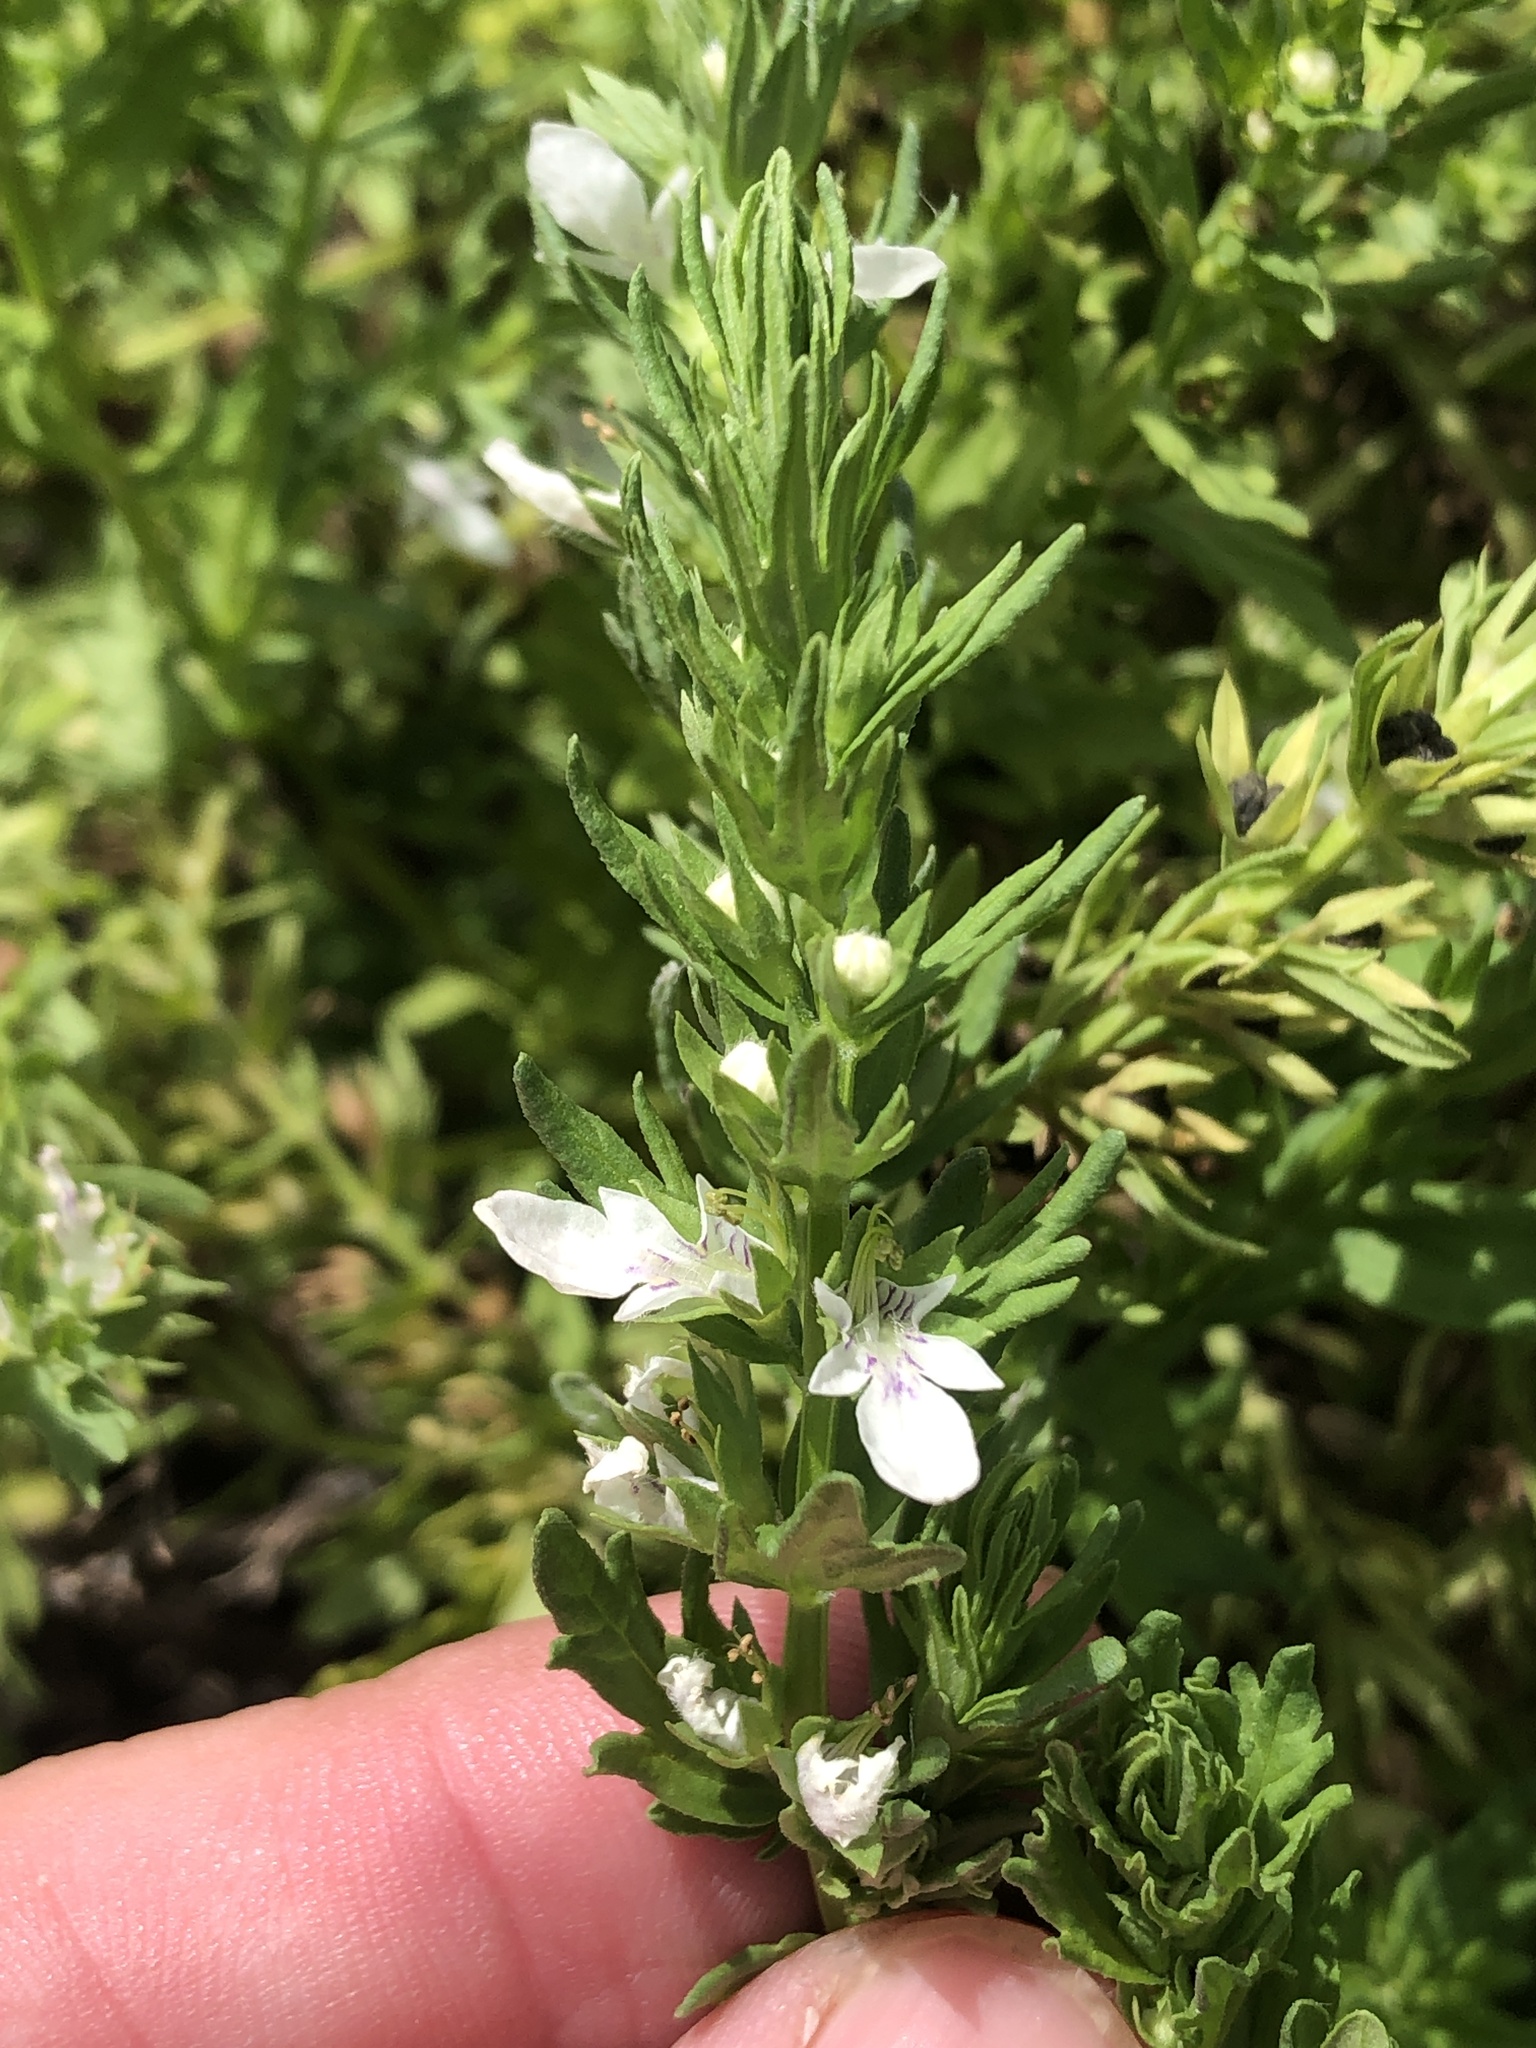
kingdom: Plantae
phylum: Tracheophyta
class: Magnoliopsida
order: Lamiales
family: Lamiaceae
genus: Teucrium
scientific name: Teucrium cubense
